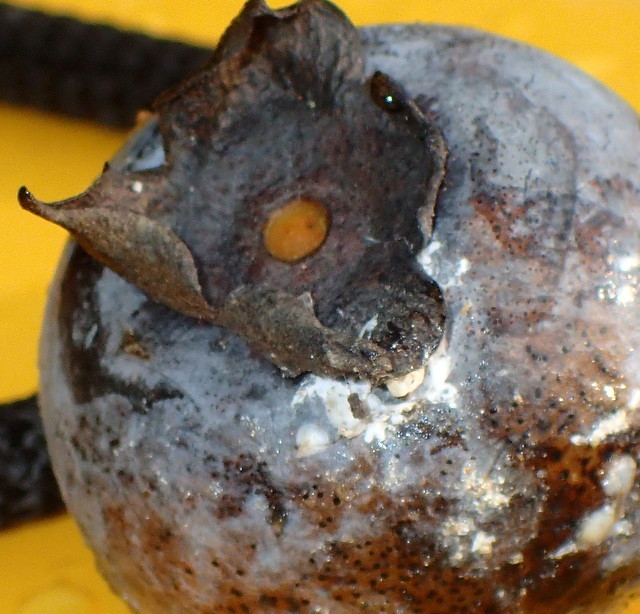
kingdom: Plantae
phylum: Tracheophyta
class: Magnoliopsida
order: Ericales
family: Ebenaceae
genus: Diospyros
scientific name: Diospyros virginiana
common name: Persimmon
